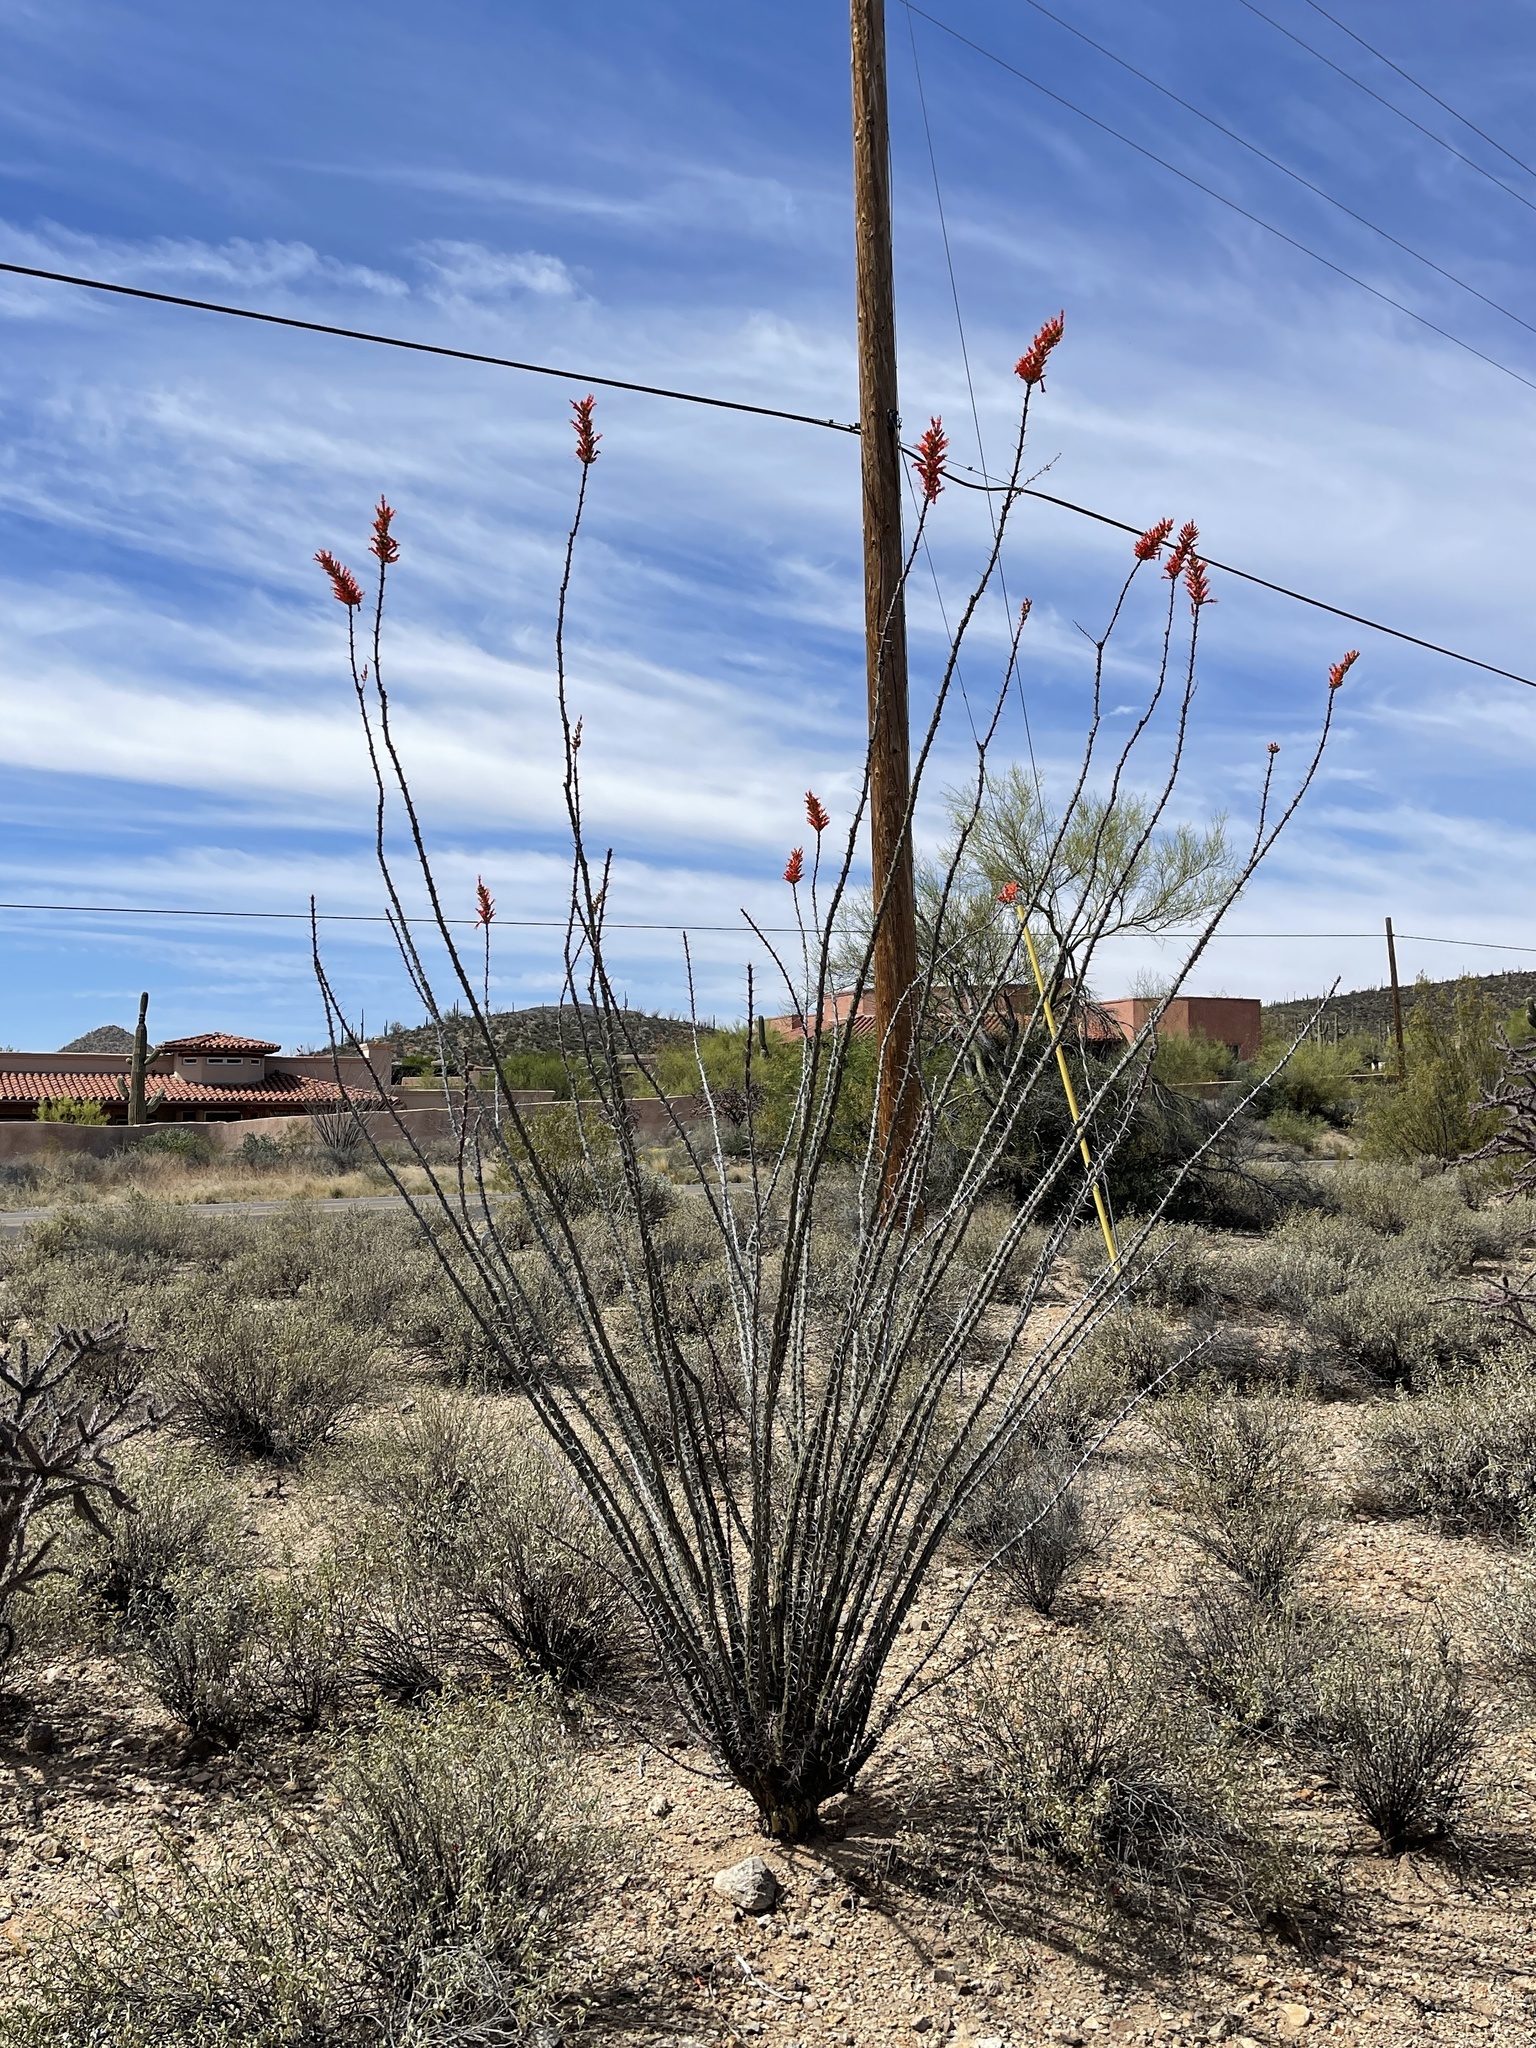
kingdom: Plantae
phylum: Tracheophyta
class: Magnoliopsida
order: Ericales
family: Fouquieriaceae
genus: Fouquieria
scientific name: Fouquieria splendens
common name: Vine-cactus
